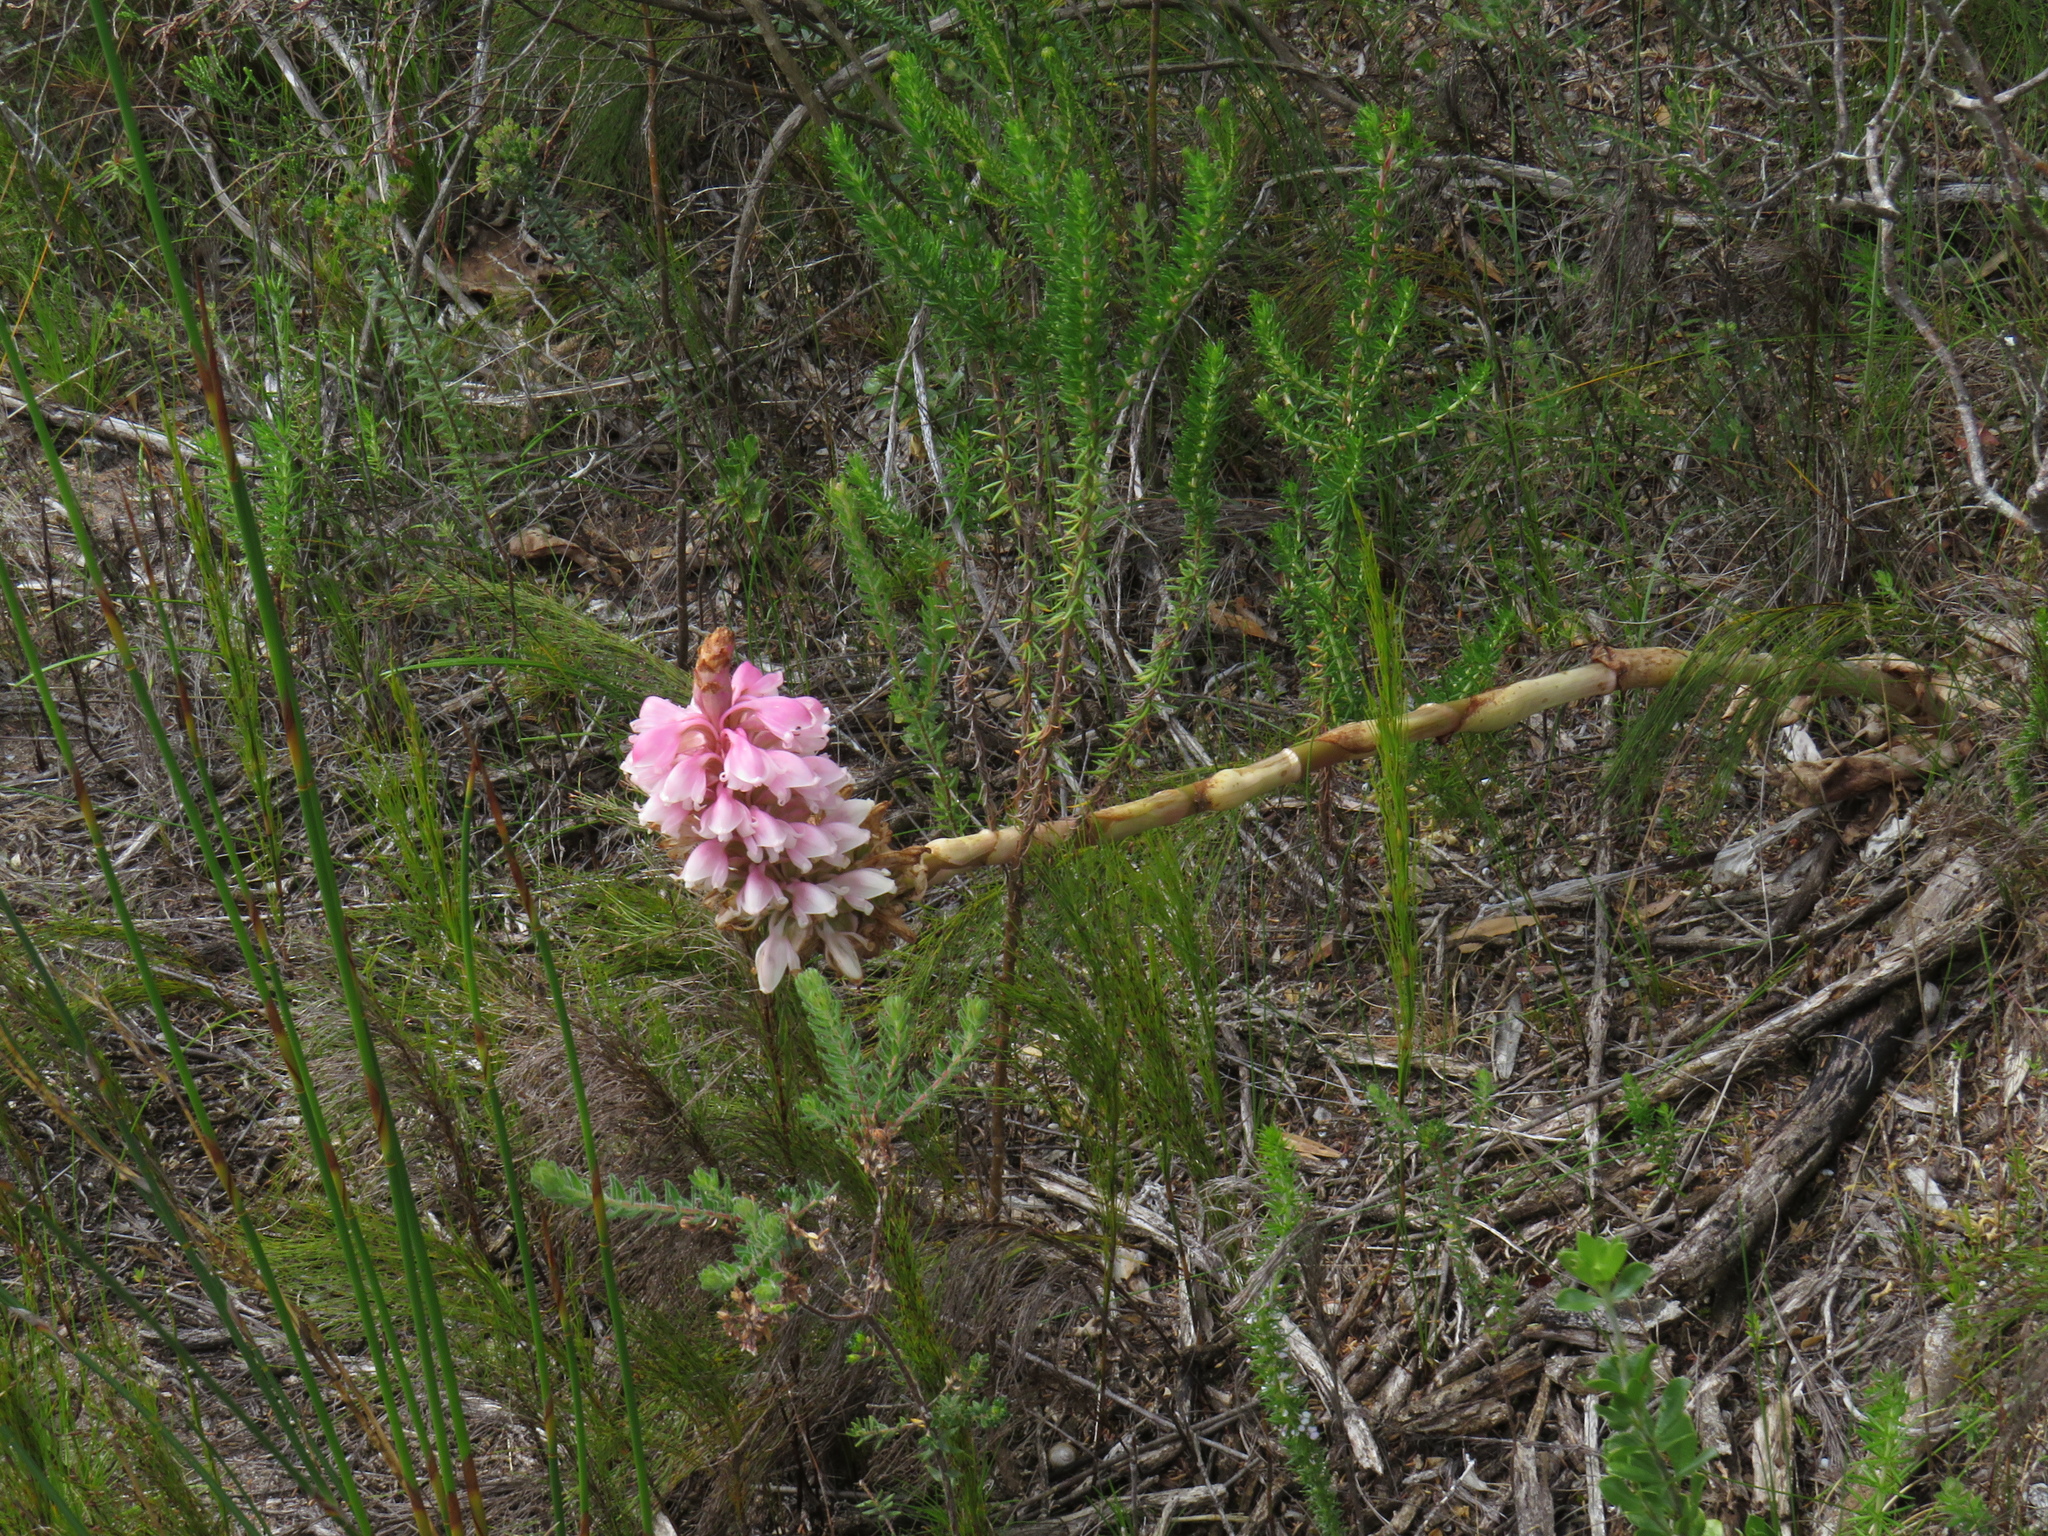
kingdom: Plantae
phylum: Tracheophyta
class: Liliopsida
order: Asparagales
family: Orchidaceae
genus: Satyrium
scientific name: Satyrium carneum
